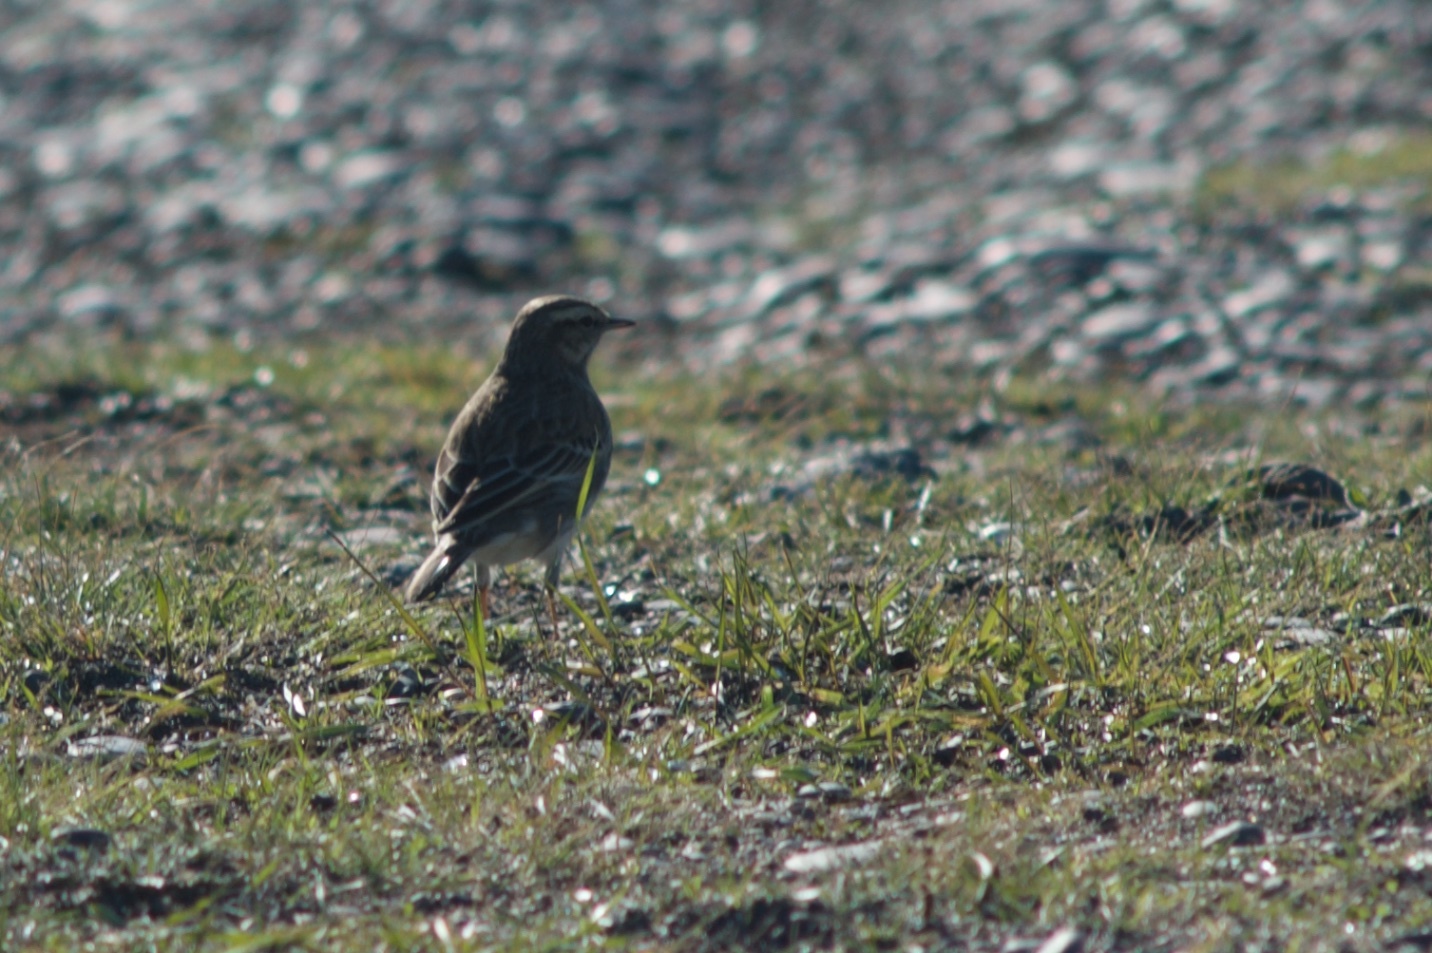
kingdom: Animalia
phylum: Chordata
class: Aves
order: Passeriformes
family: Motacillidae
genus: Anthus
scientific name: Anthus novaeseelandiae
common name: New zealand pipit
